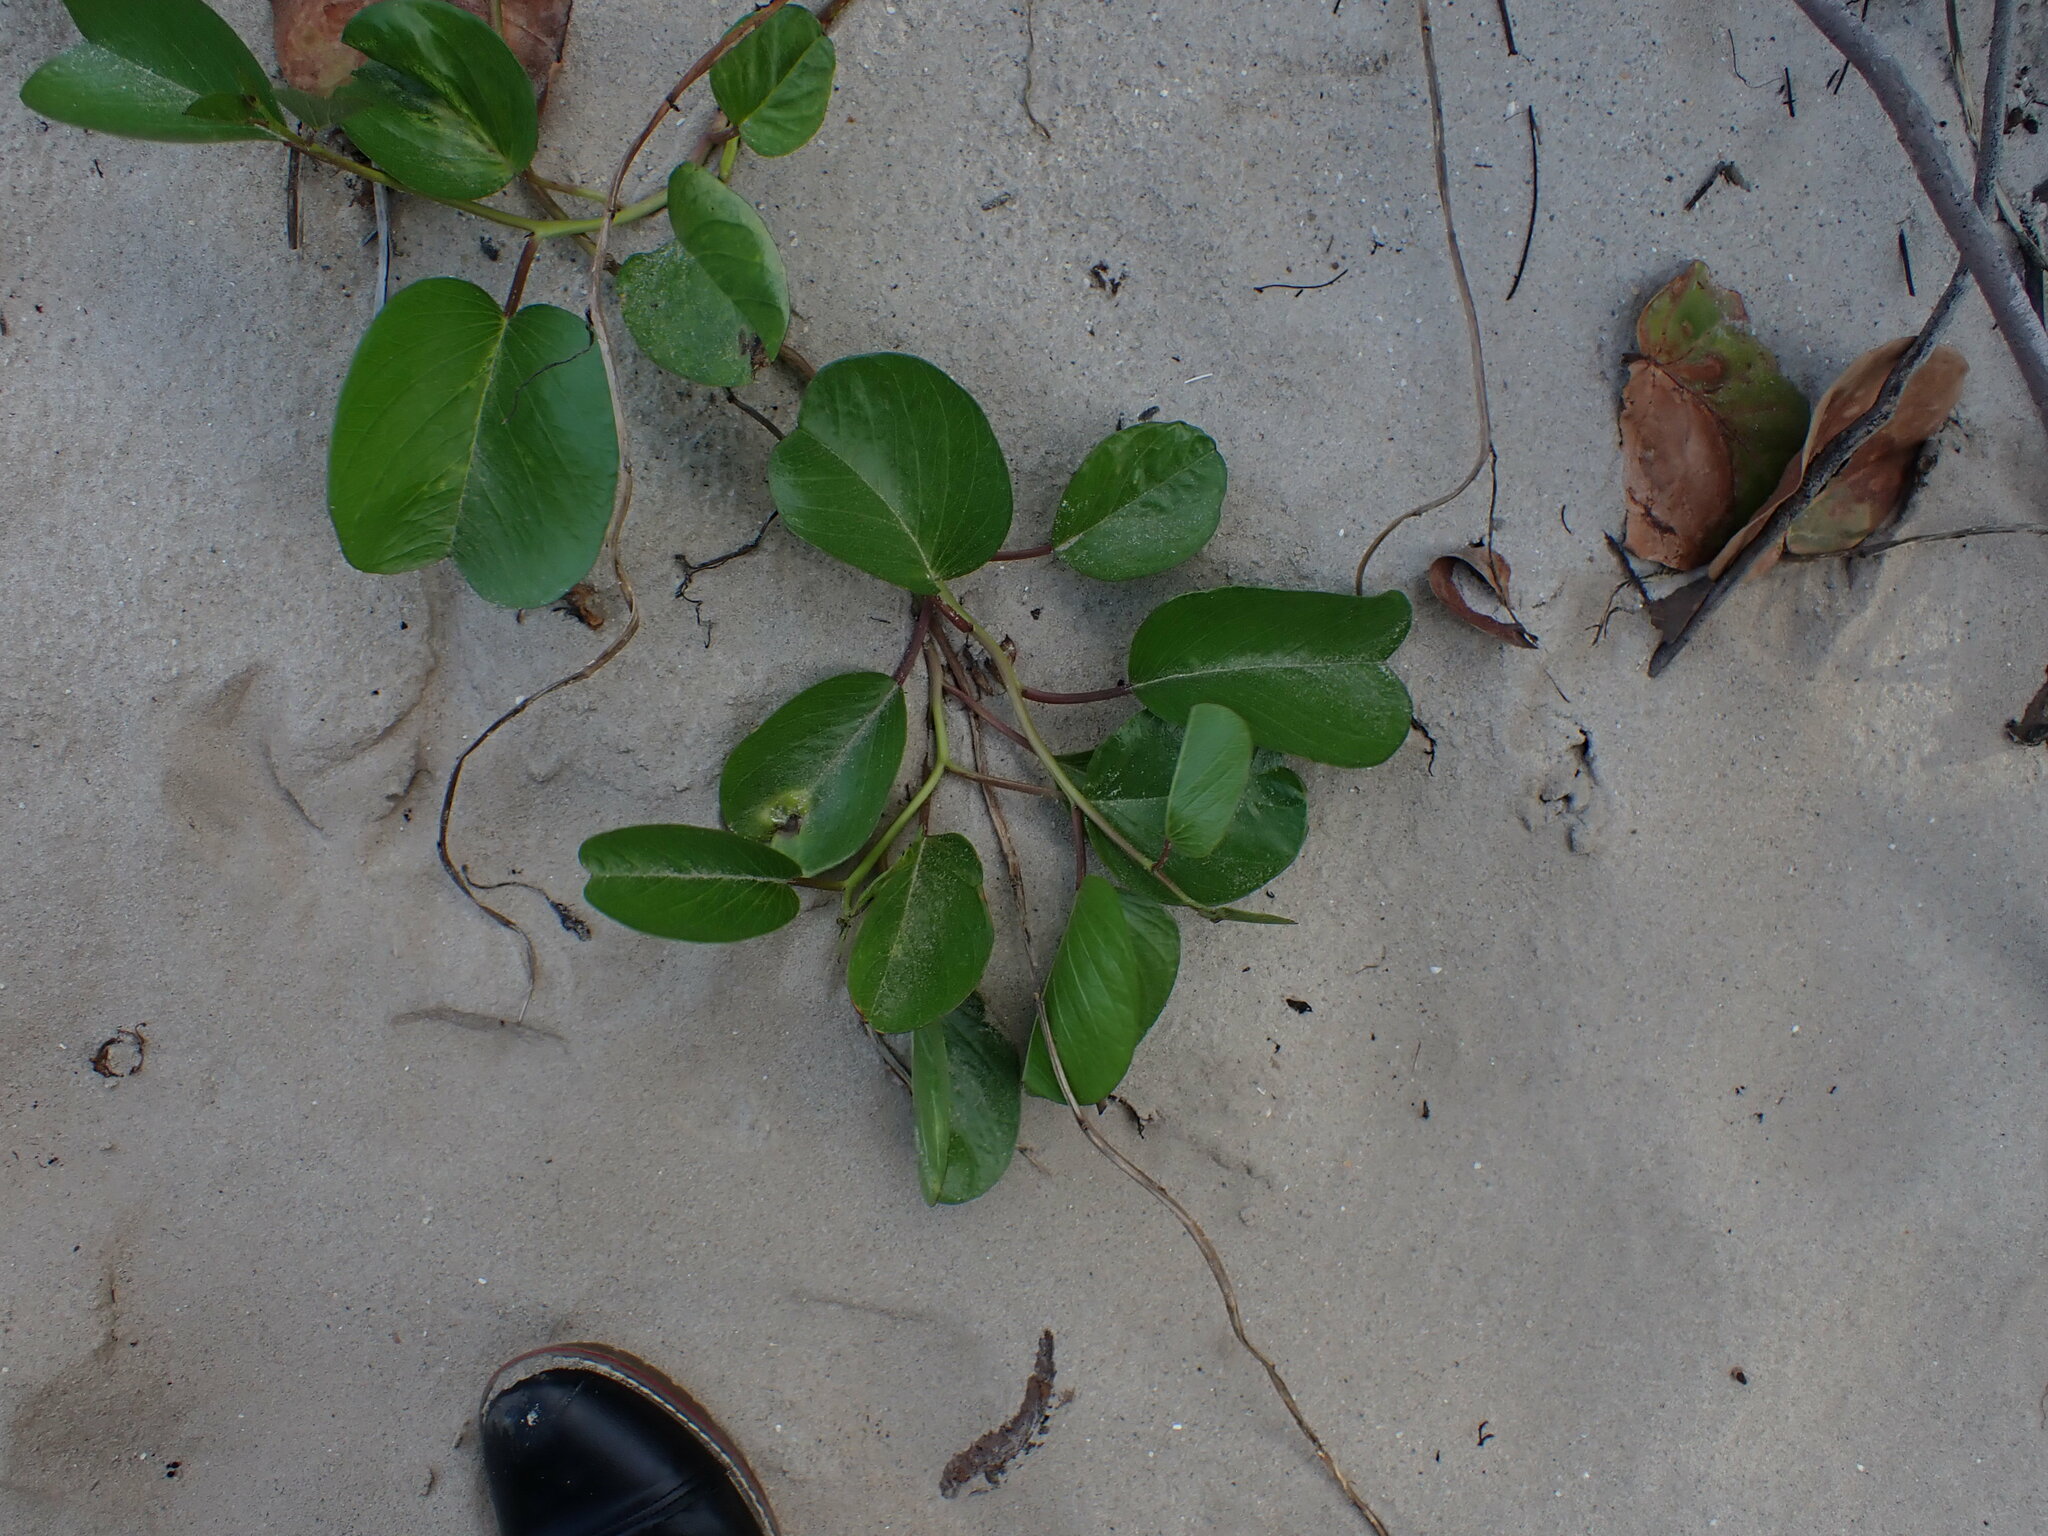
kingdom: Plantae
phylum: Tracheophyta
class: Magnoliopsida
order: Solanales
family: Convolvulaceae
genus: Ipomoea
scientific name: Ipomoea pes-caprae
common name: Beach morning glory
